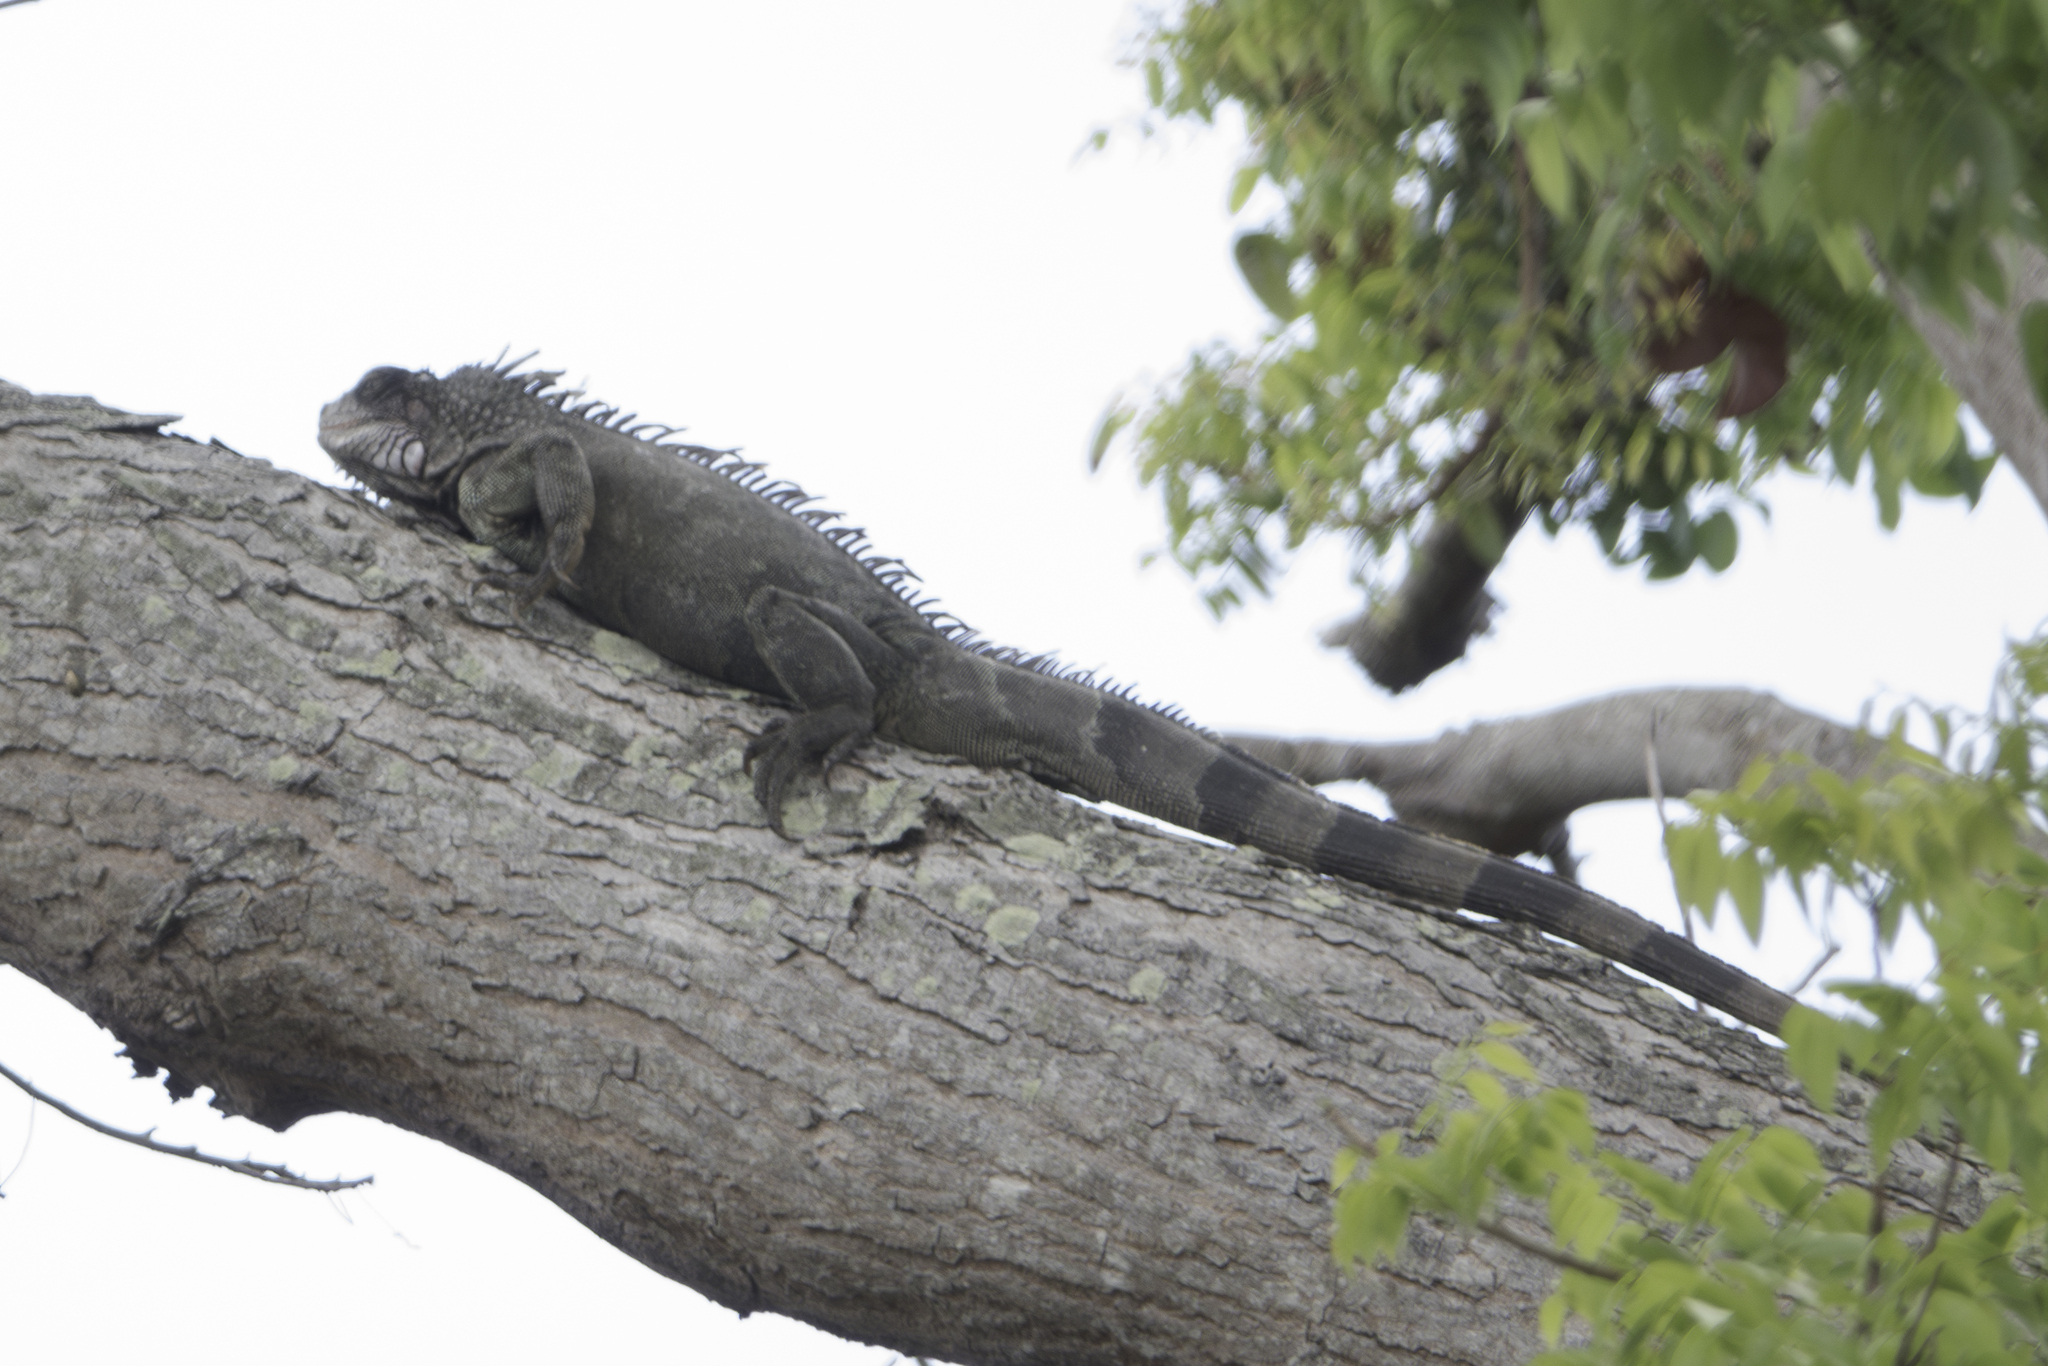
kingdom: Animalia
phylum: Chordata
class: Squamata
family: Iguanidae
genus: Iguana
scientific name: Iguana iguana
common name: Green iguana
